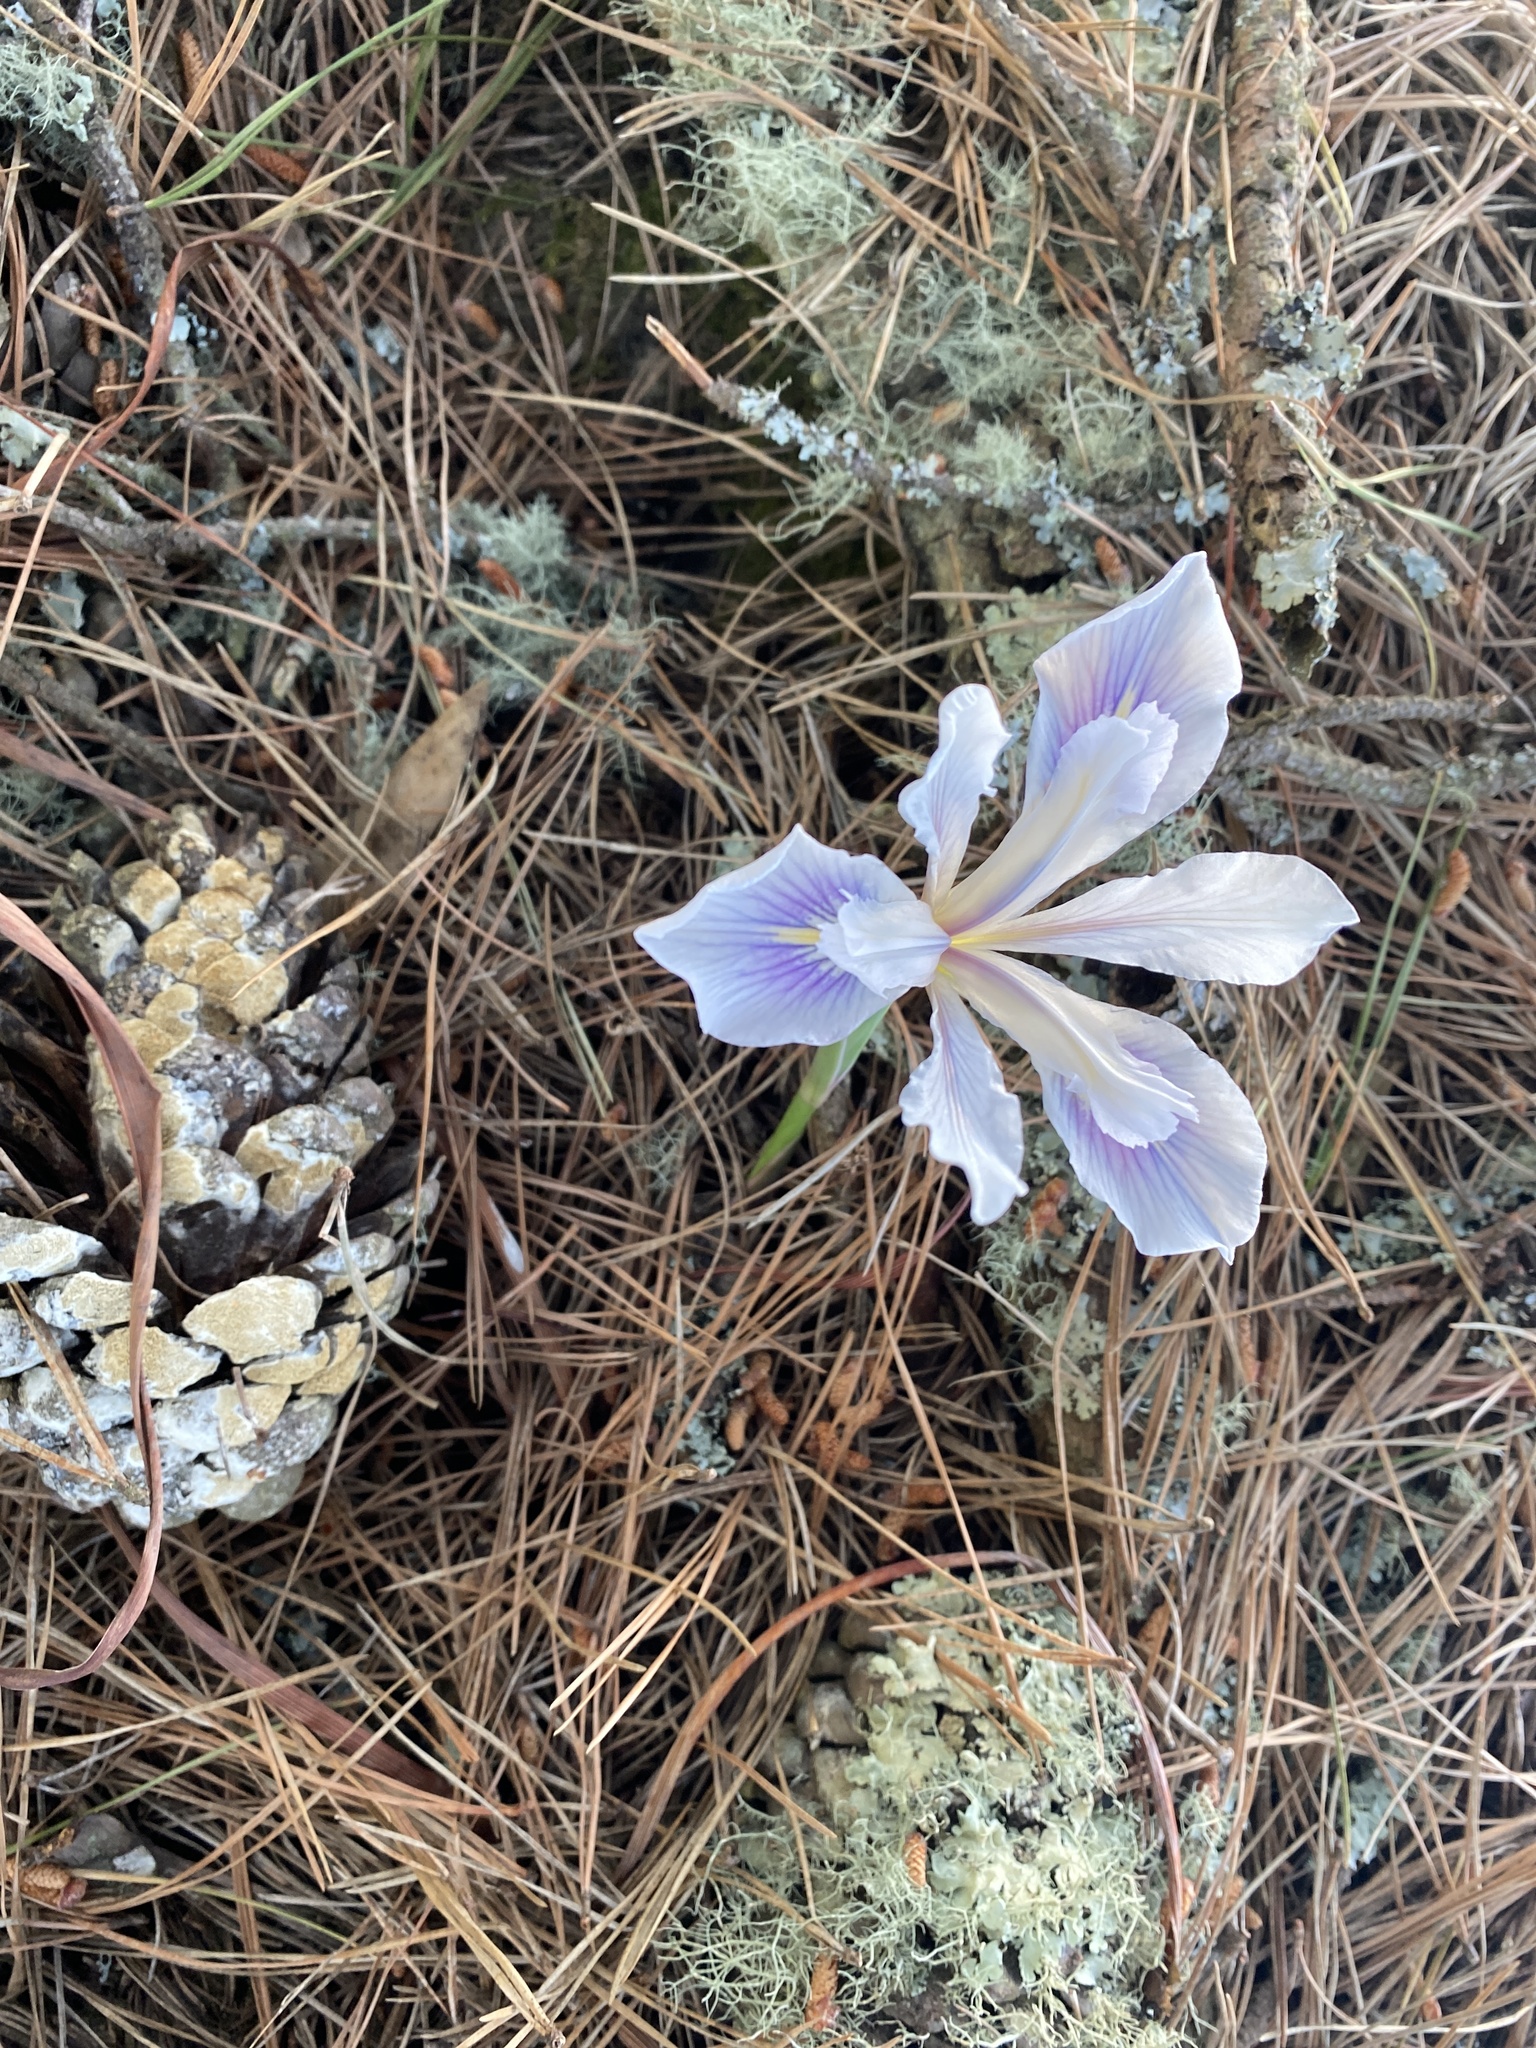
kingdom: Plantae
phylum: Tracheophyta
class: Liliopsida
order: Asparagales
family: Iridaceae
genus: Iris
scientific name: Iris douglasiana
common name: Marin iris
